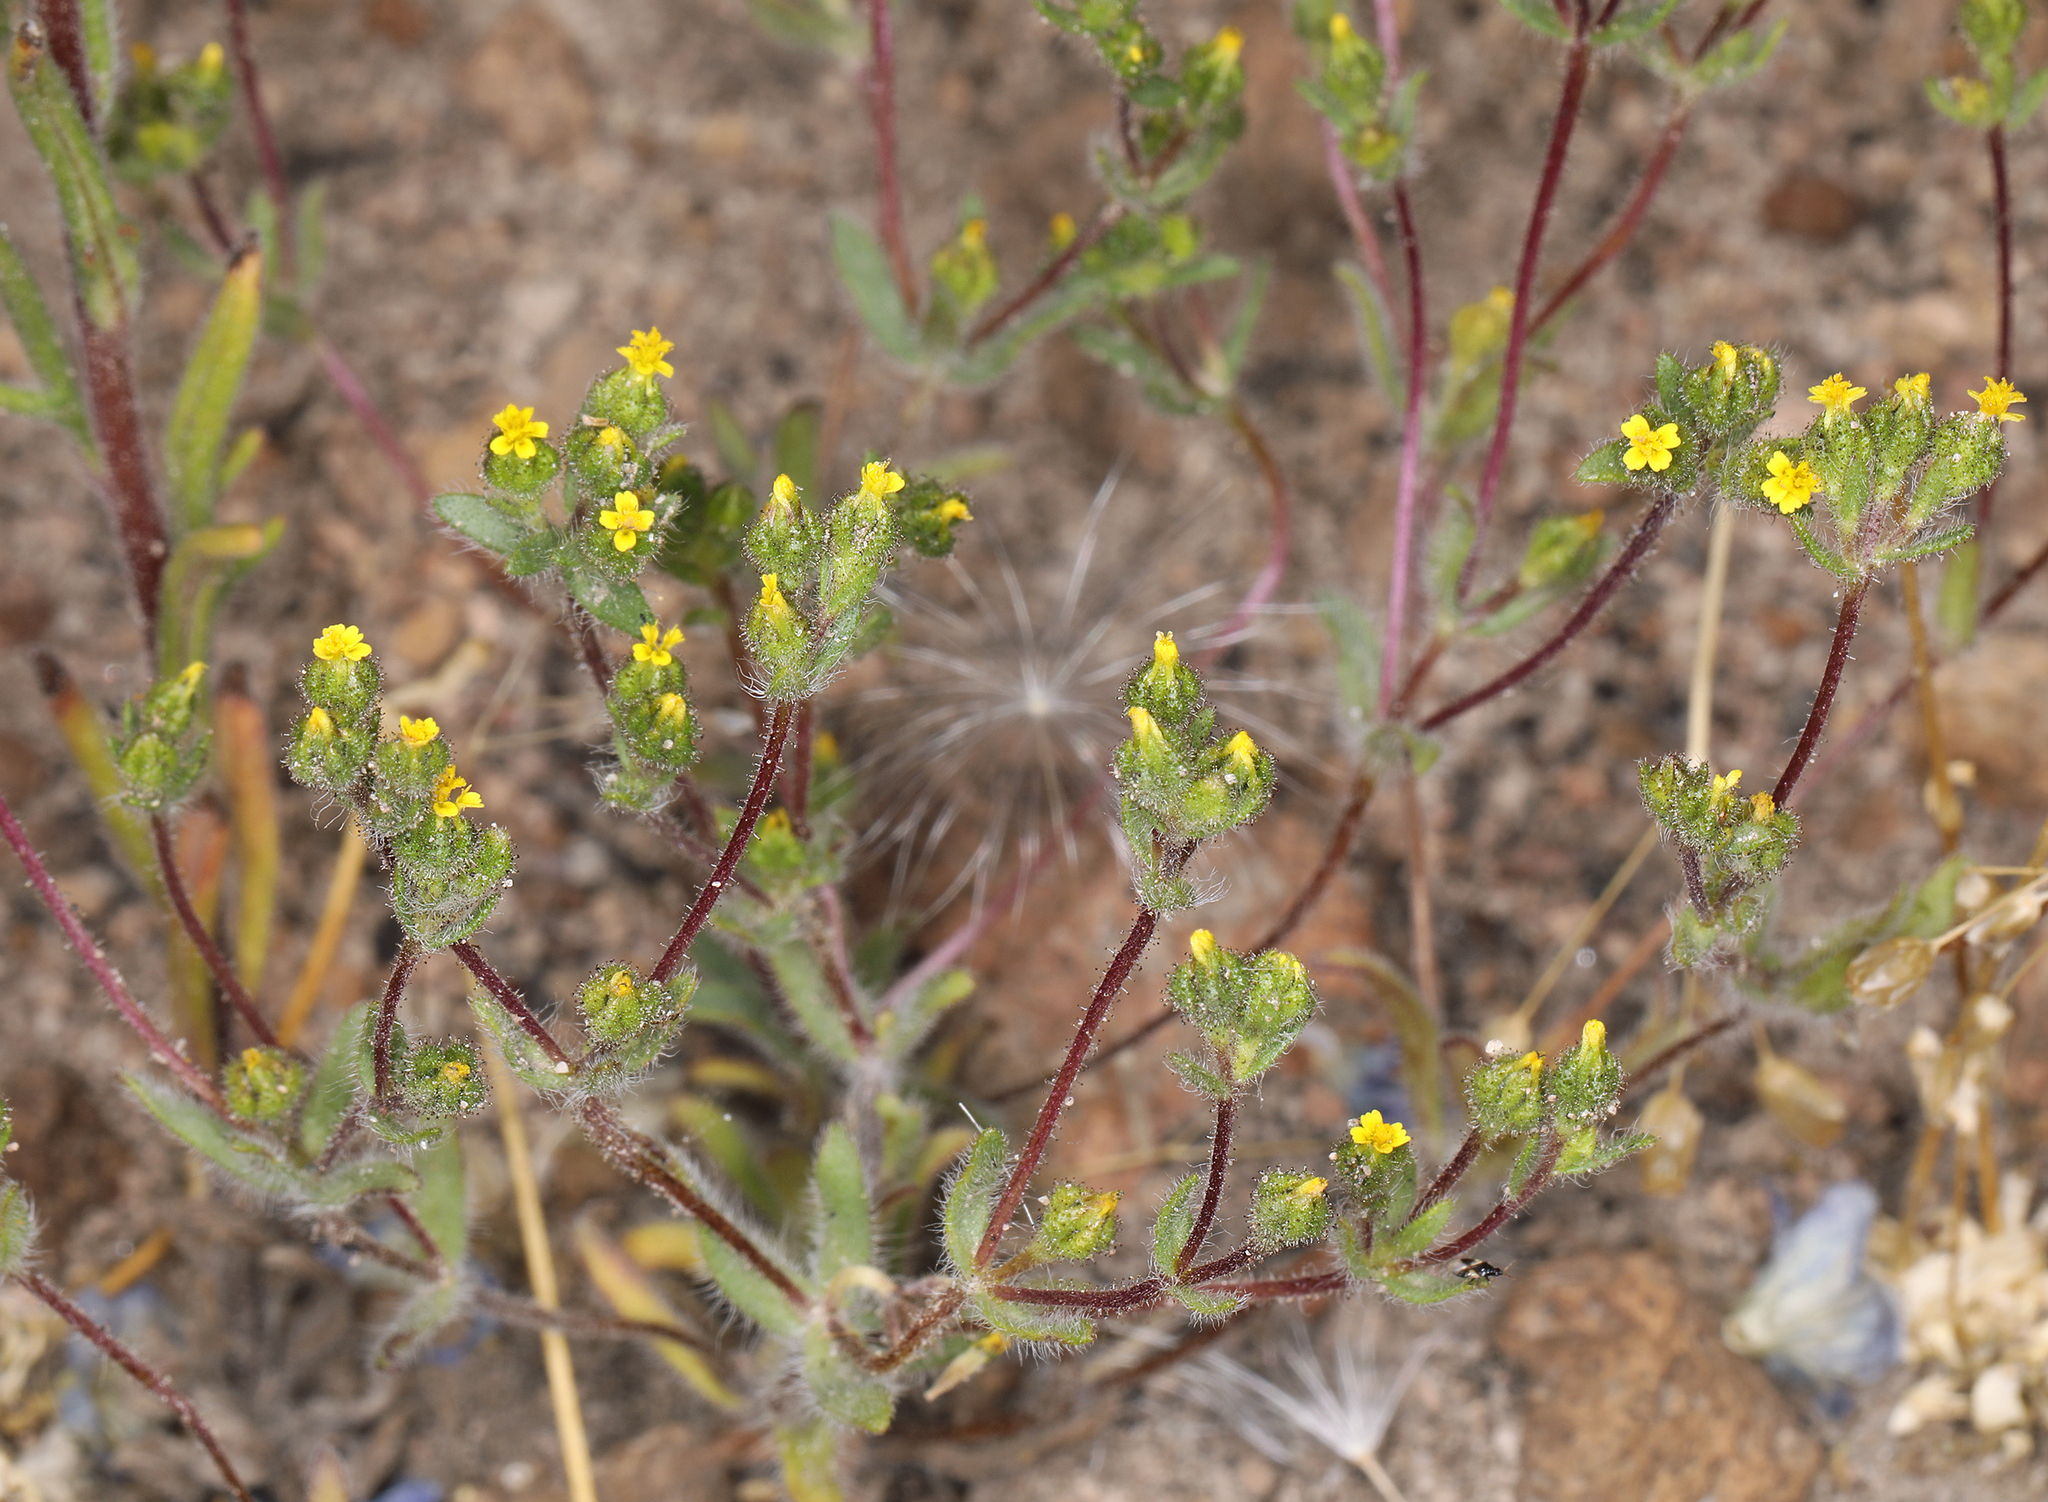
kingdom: Plantae
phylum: Tracheophyta
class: Magnoliopsida
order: Asterales
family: Asteraceae
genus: Hemizonella
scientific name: Hemizonella minima
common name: Opposite-leaved tarweed
